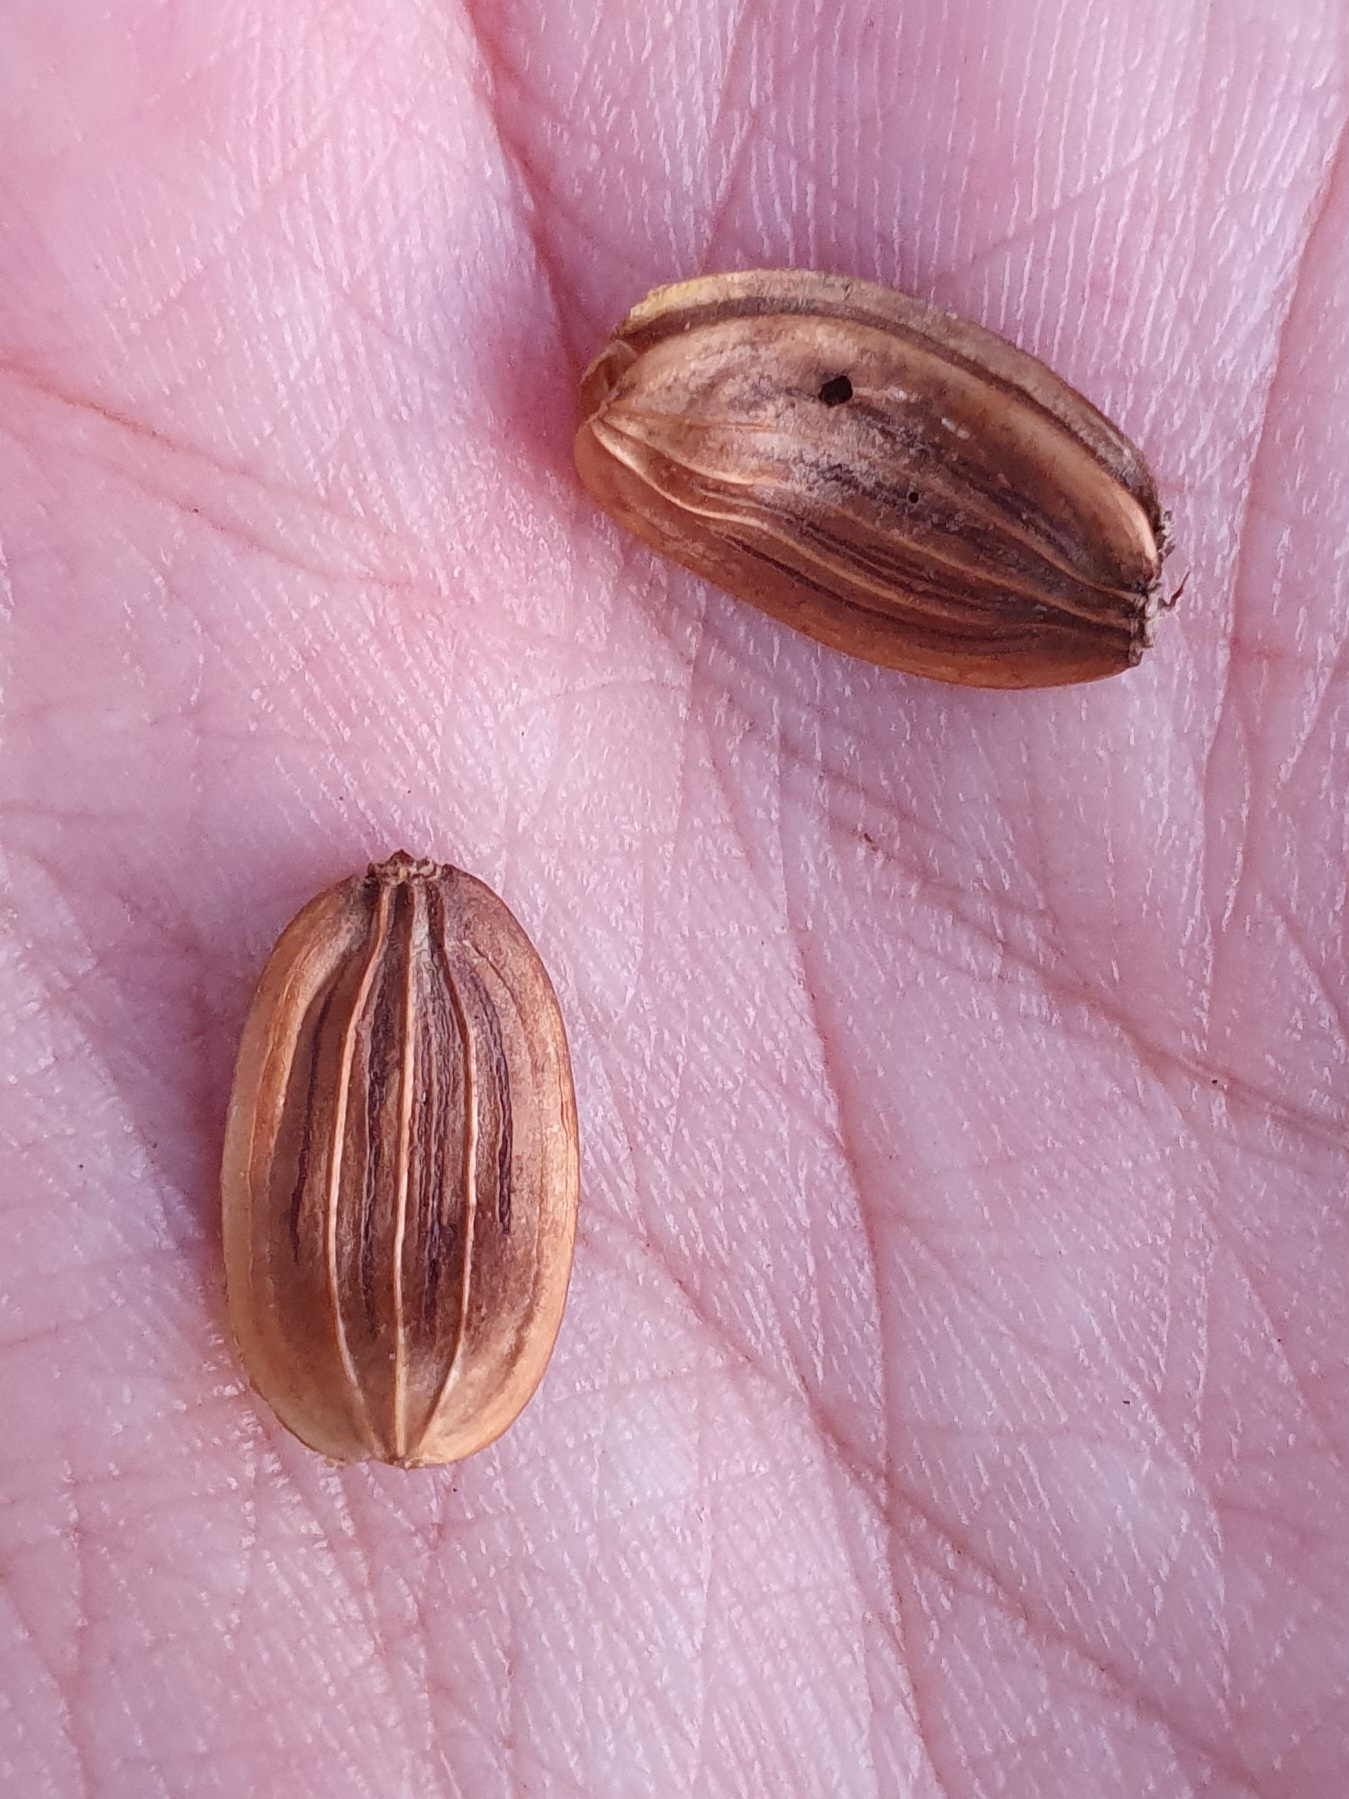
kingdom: Plantae
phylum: Tracheophyta
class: Magnoliopsida
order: Apiales
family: Apiaceae
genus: Ferula
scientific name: Ferula communis
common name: Giant fennel
